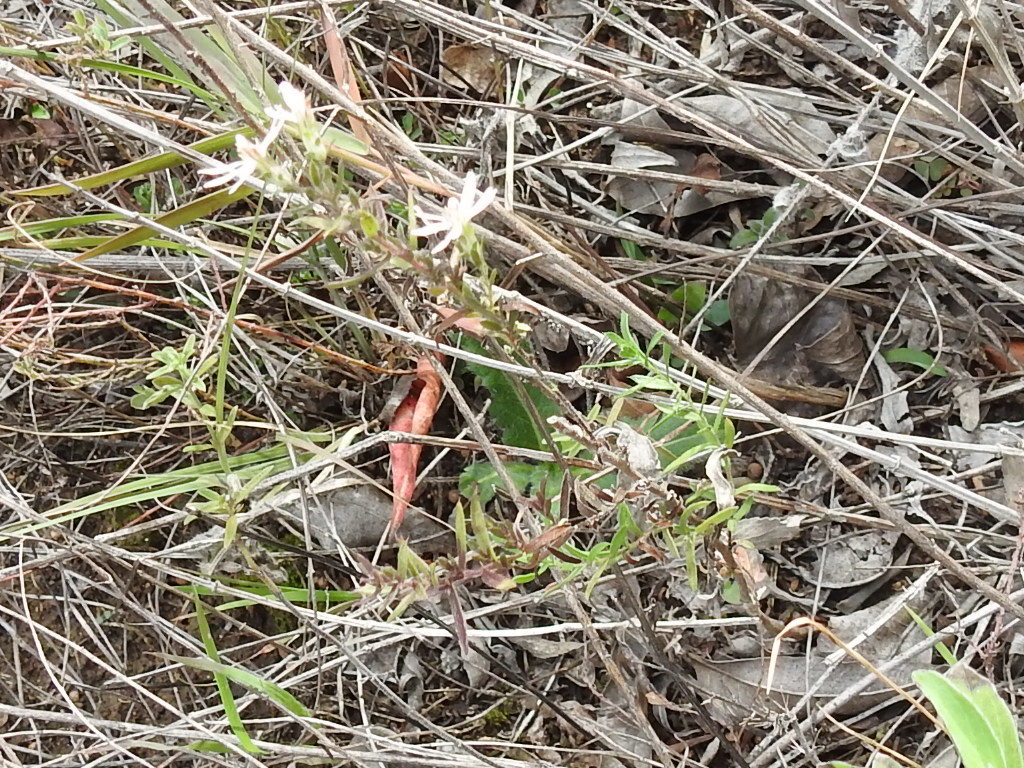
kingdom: Plantae
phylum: Tracheophyta
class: Magnoliopsida
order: Asterales
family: Asteraceae
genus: Symphyotrichum
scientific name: Symphyotrichum ericoides
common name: Heath aster
